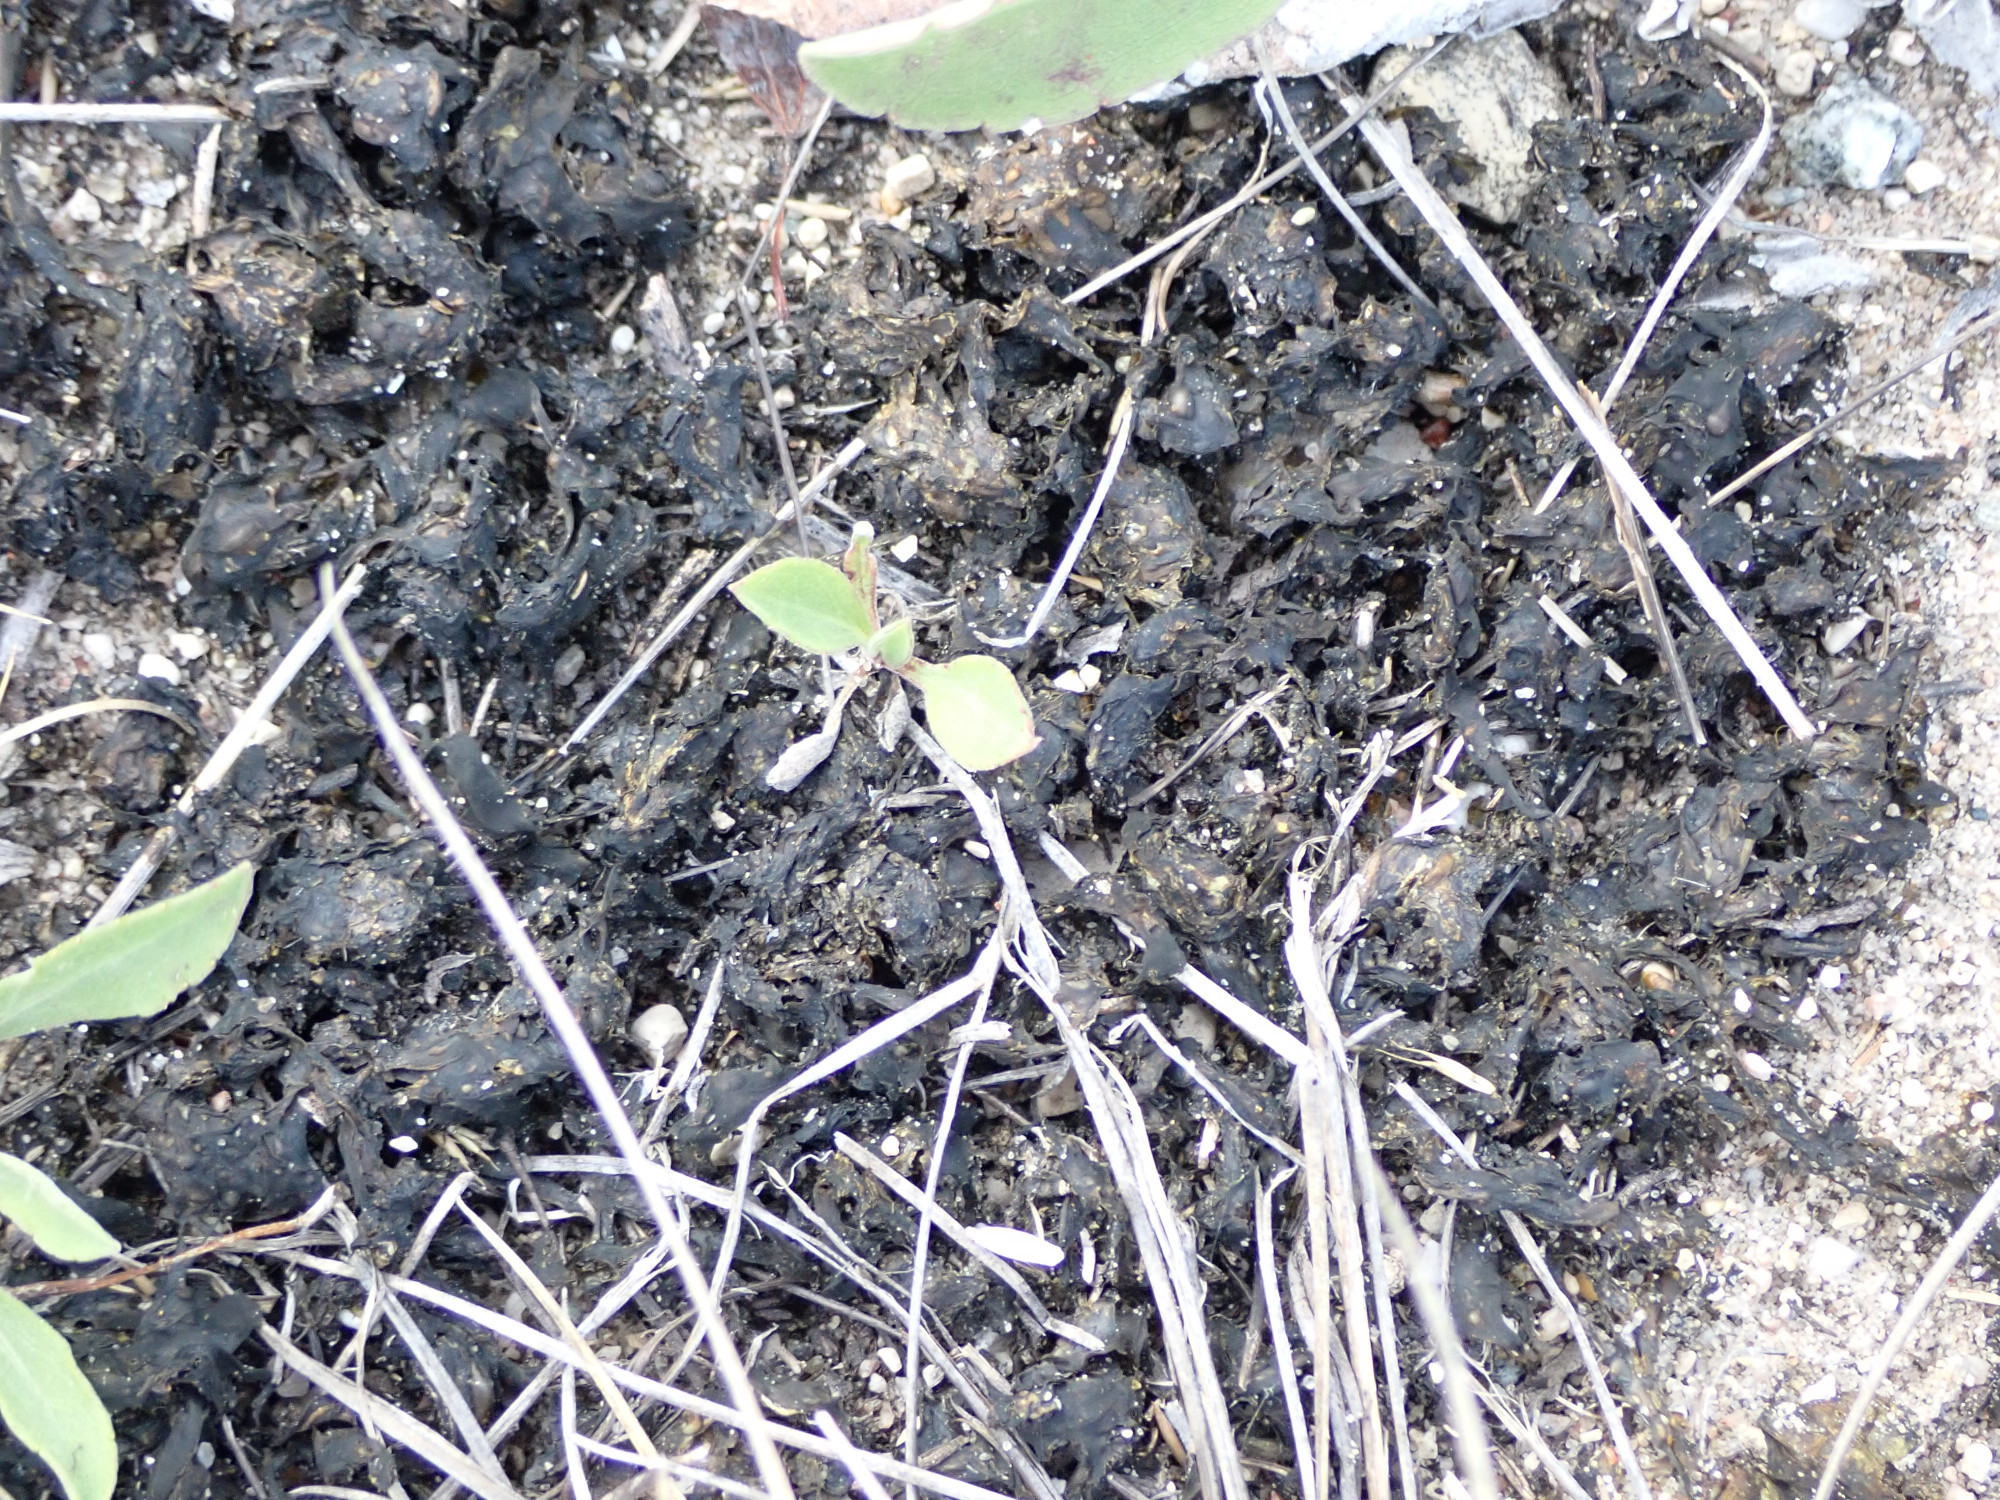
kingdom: Bacteria
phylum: Cyanobacteria
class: Cyanobacteriia
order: Cyanobacteriales
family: Nostocaceae
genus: Nostoc
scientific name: Nostoc commune
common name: Star jelly
